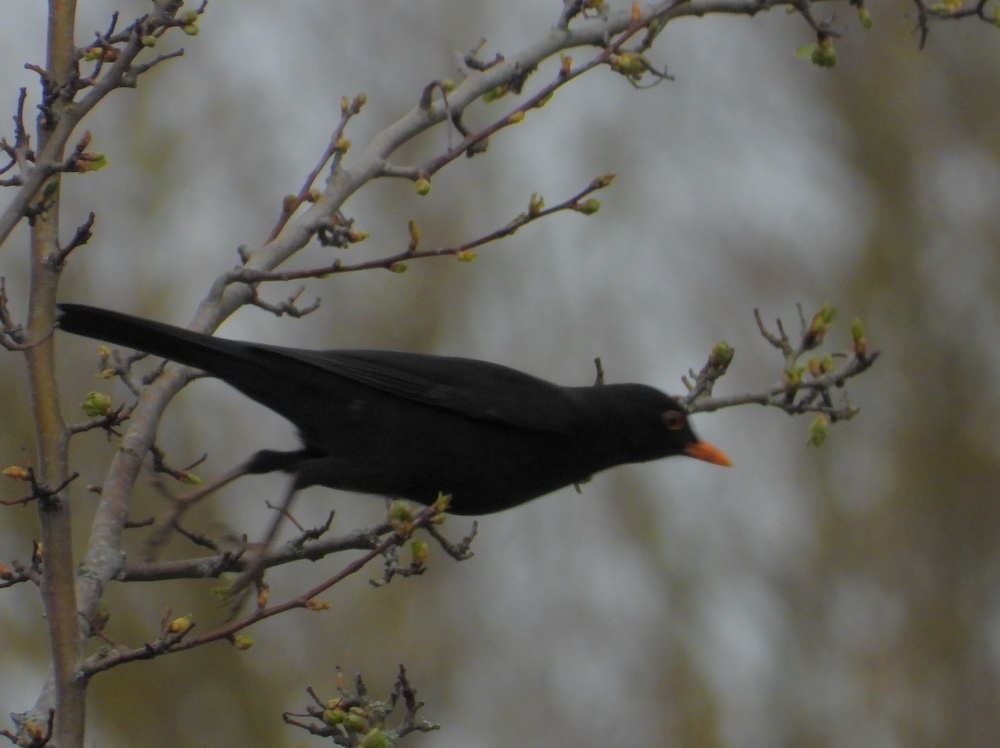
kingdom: Animalia
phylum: Chordata
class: Aves
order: Passeriformes
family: Turdidae
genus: Turdus
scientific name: Turdus merula
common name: Common blackbird
